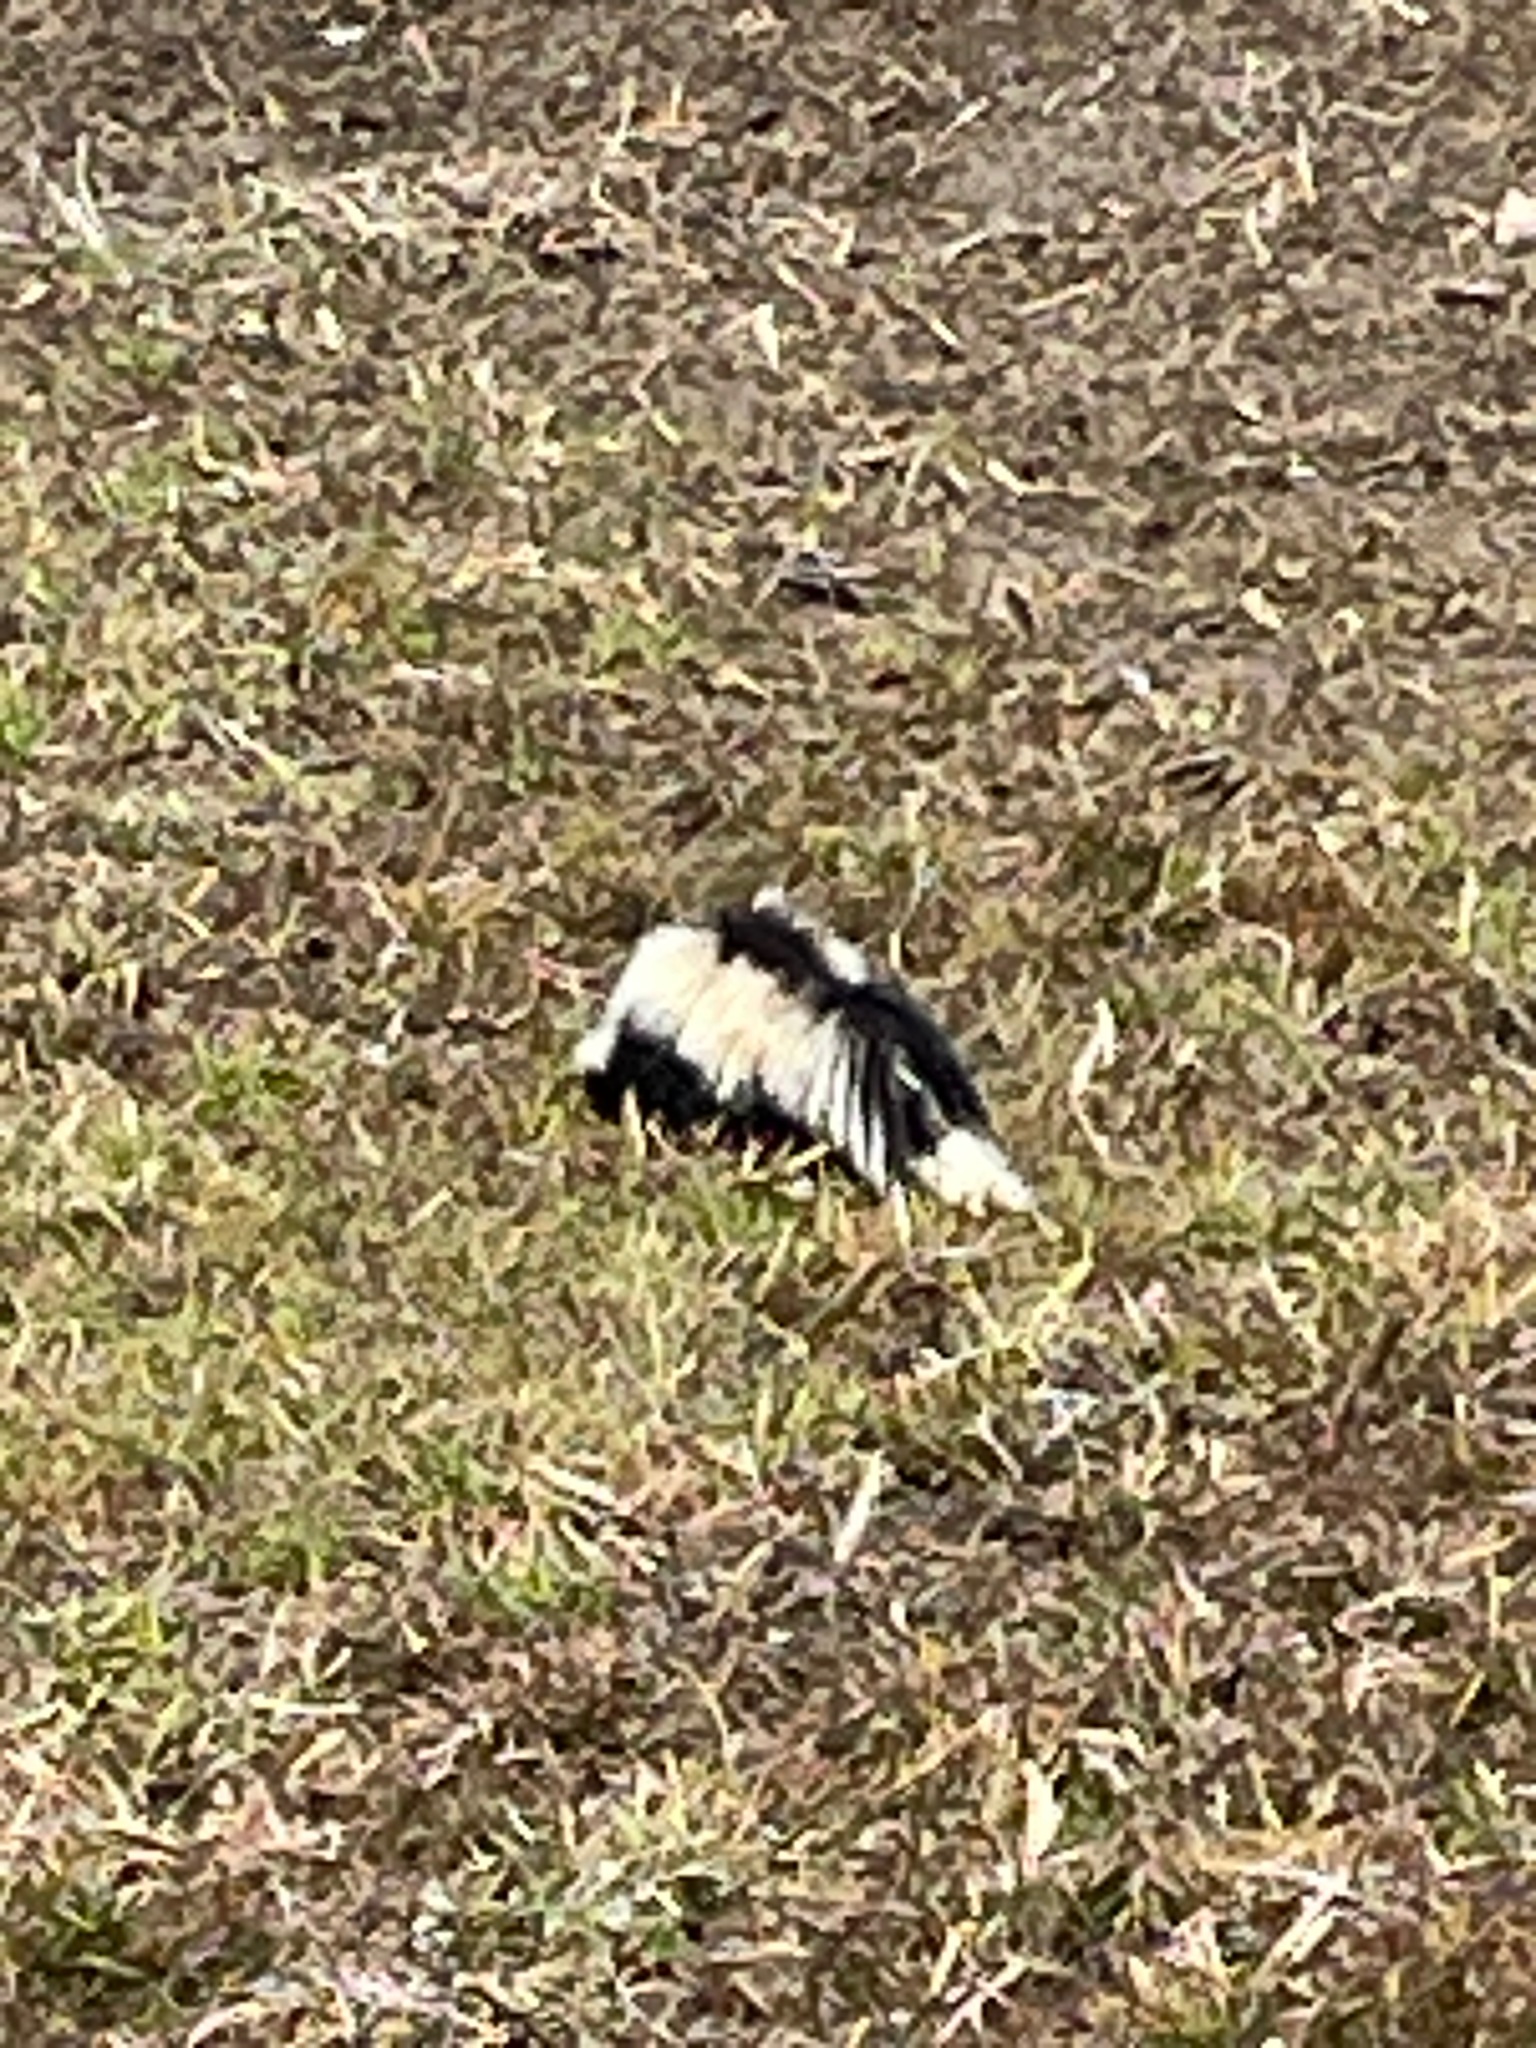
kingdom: Animalia
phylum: Chordata
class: Mammalia
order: Carnivora
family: Mephitidae
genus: Mephitis
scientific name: Mephitis mephitis
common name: Striped skunk
